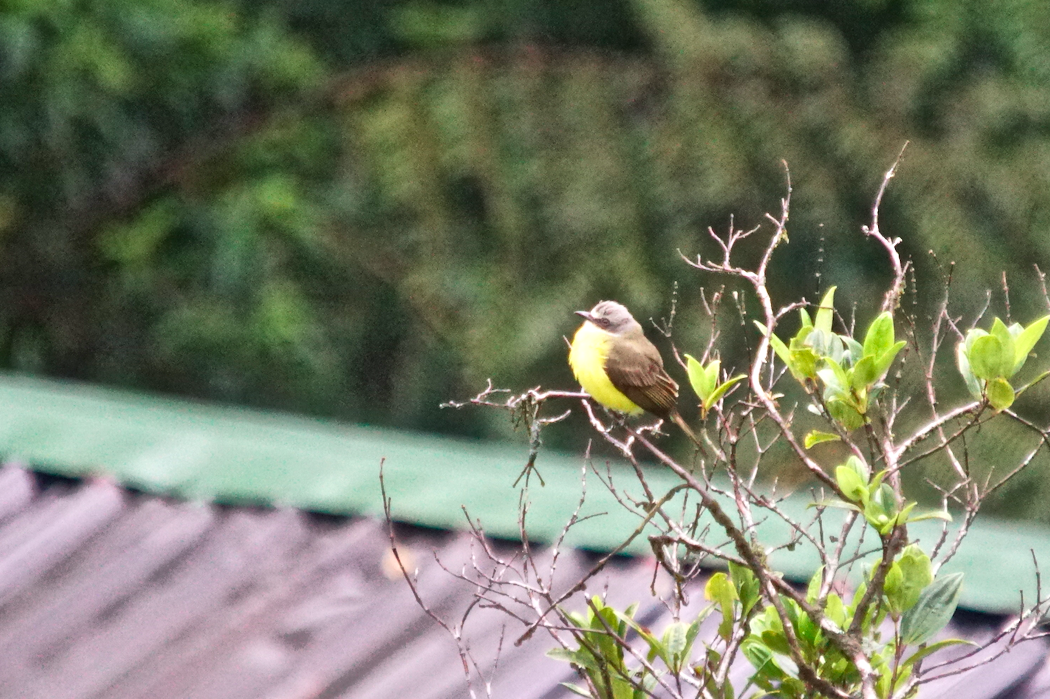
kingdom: Animalia
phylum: Chordata
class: Aves
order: Passeriformes
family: Tyrannidae
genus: Myiozetetes
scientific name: Myiozetetes granadensis
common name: Gray-capped flycatcher
